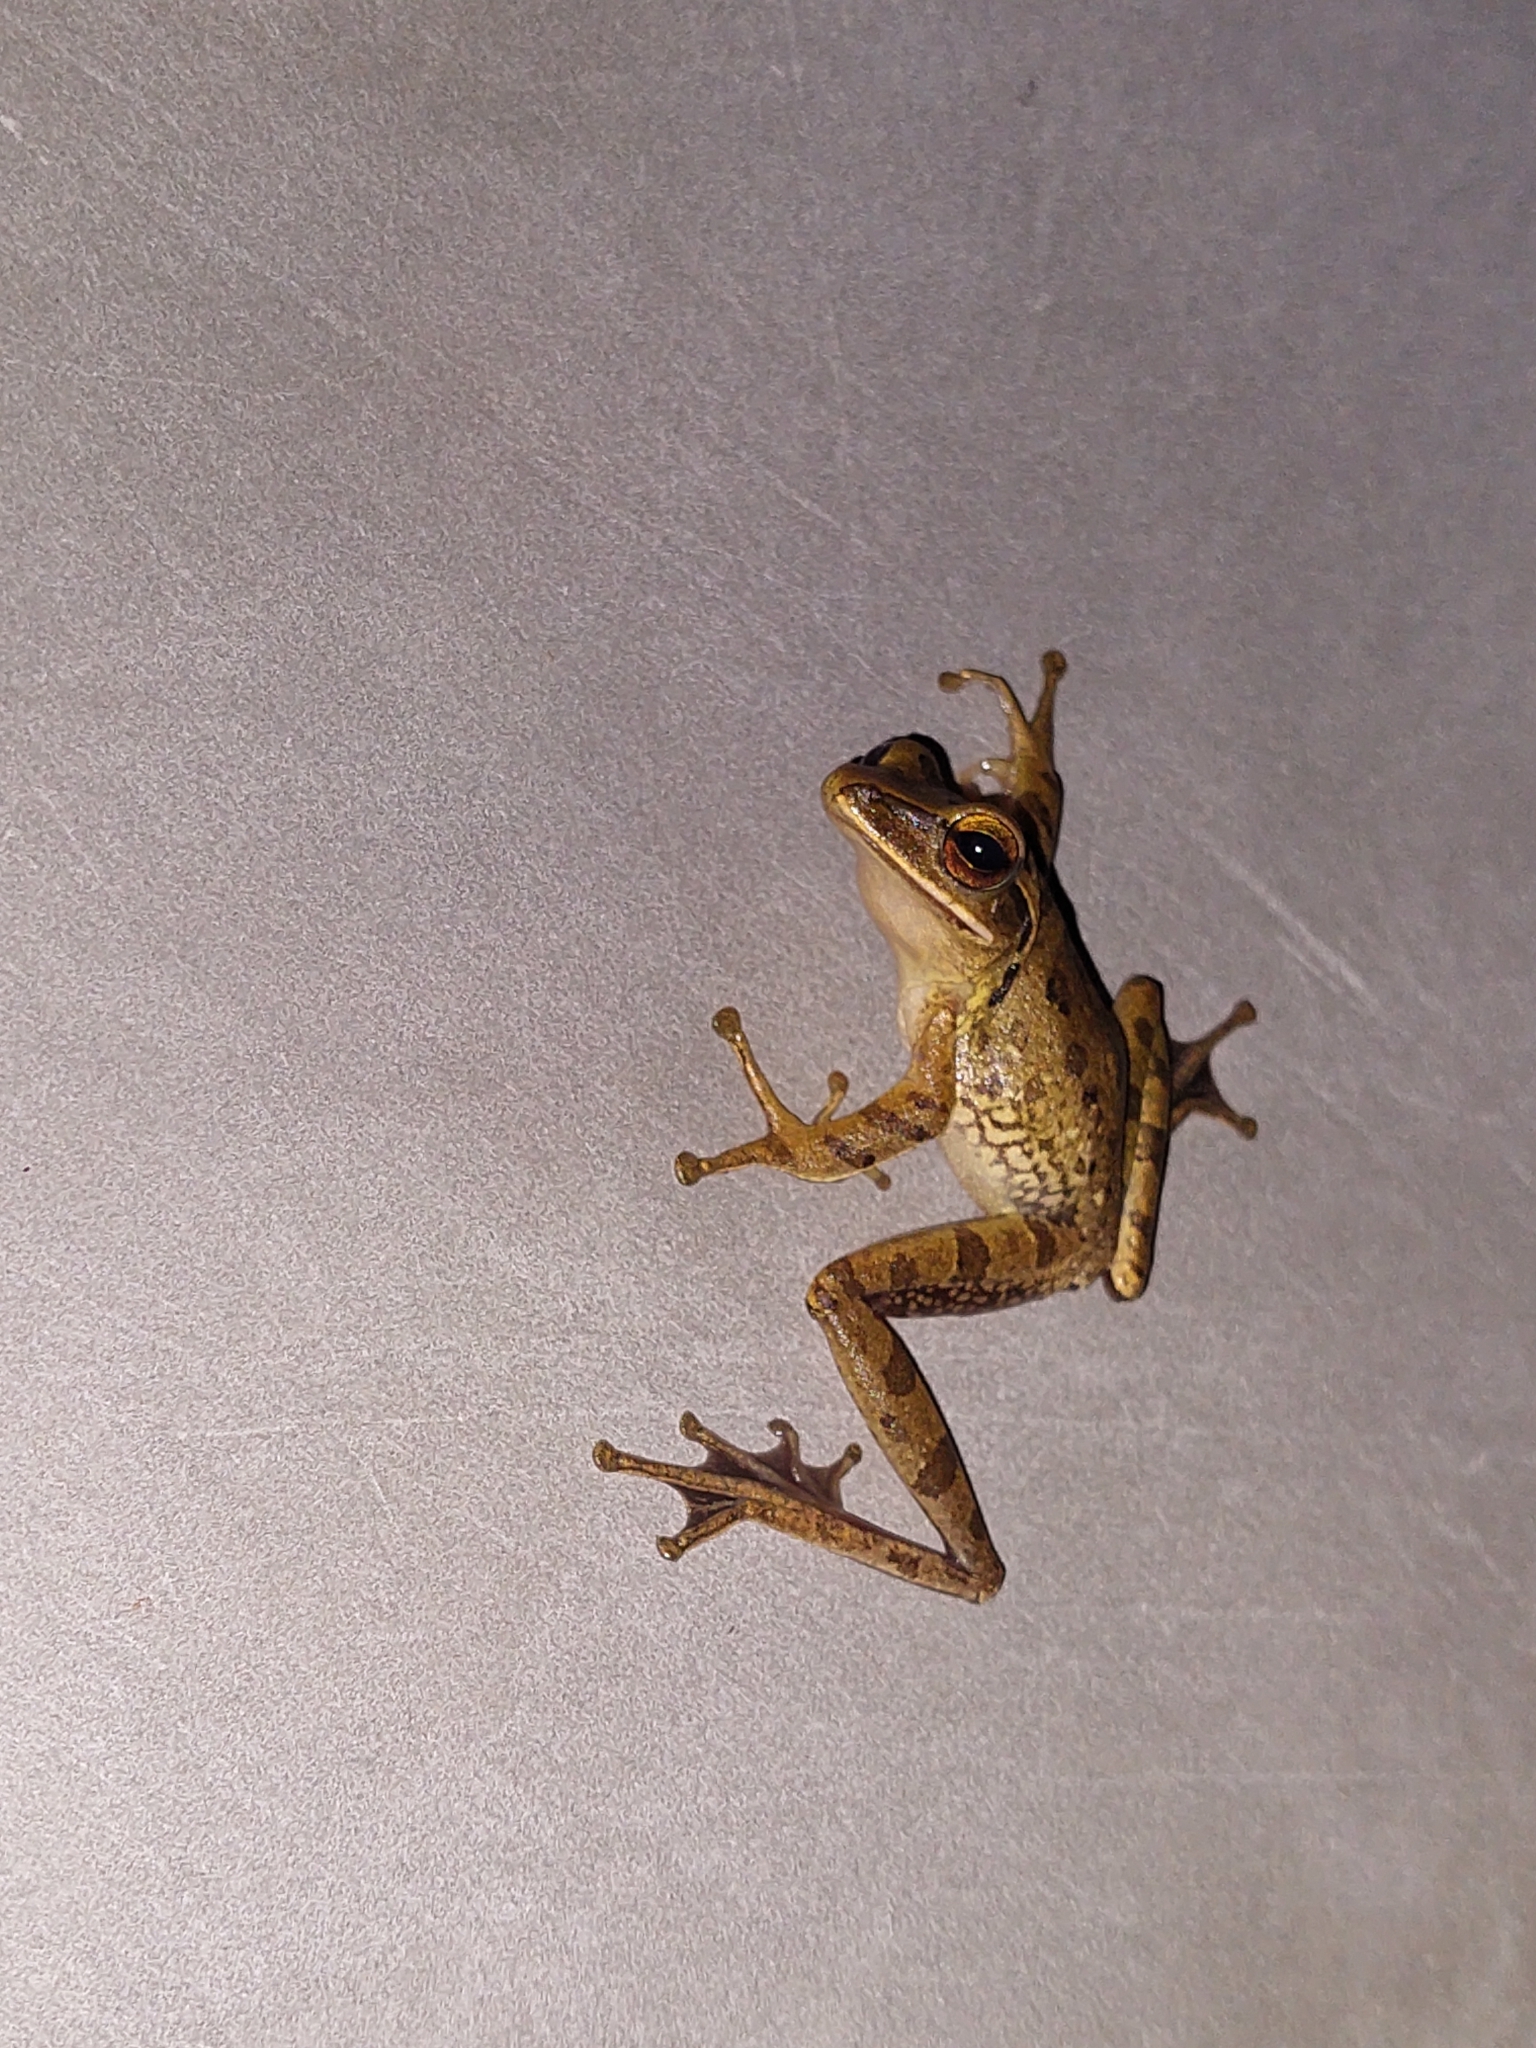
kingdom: Animalia
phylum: Chordata
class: Amphibia
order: Anura
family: Rhacophoridae
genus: Polypedates
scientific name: Polypedates leucomystax
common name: Common tree frog/four-lined tree frog
